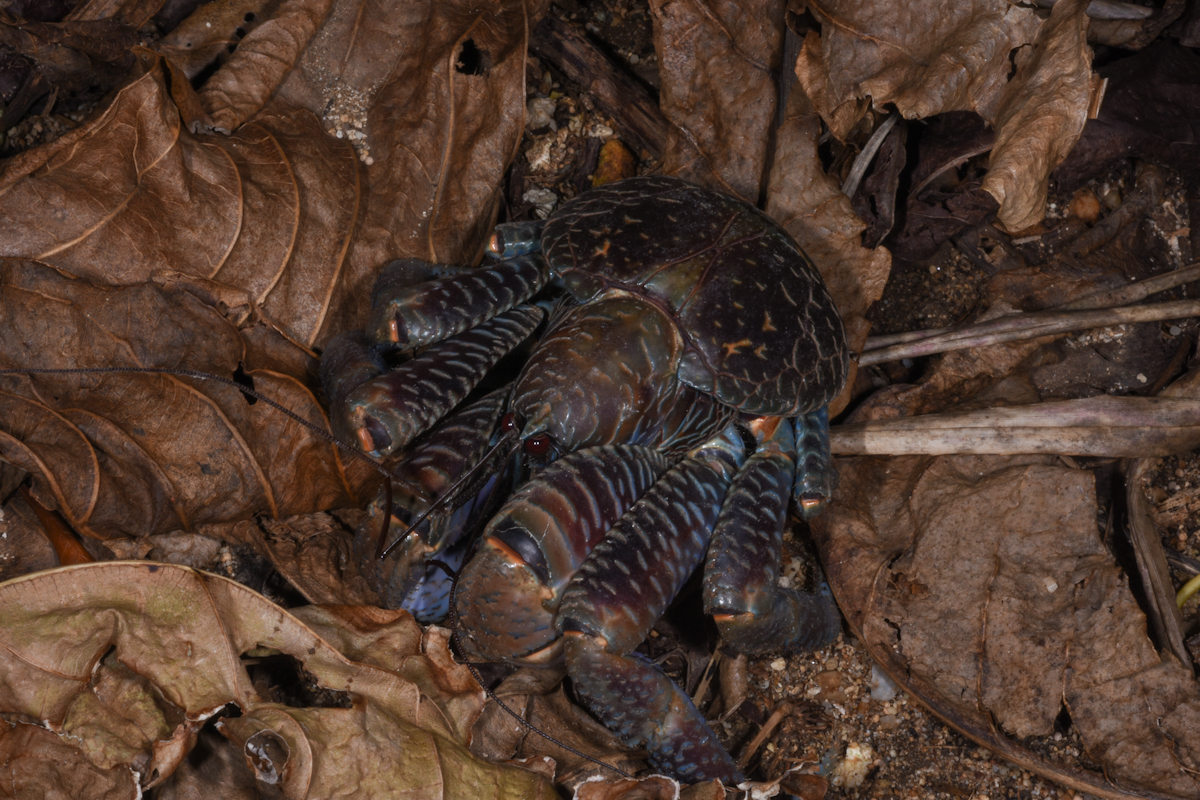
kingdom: Animalia
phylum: Arthropoda
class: Malacostraca
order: Decapoda
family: Coenobitidae
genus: Birgus
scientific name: Birgus latro
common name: Coconut crab
